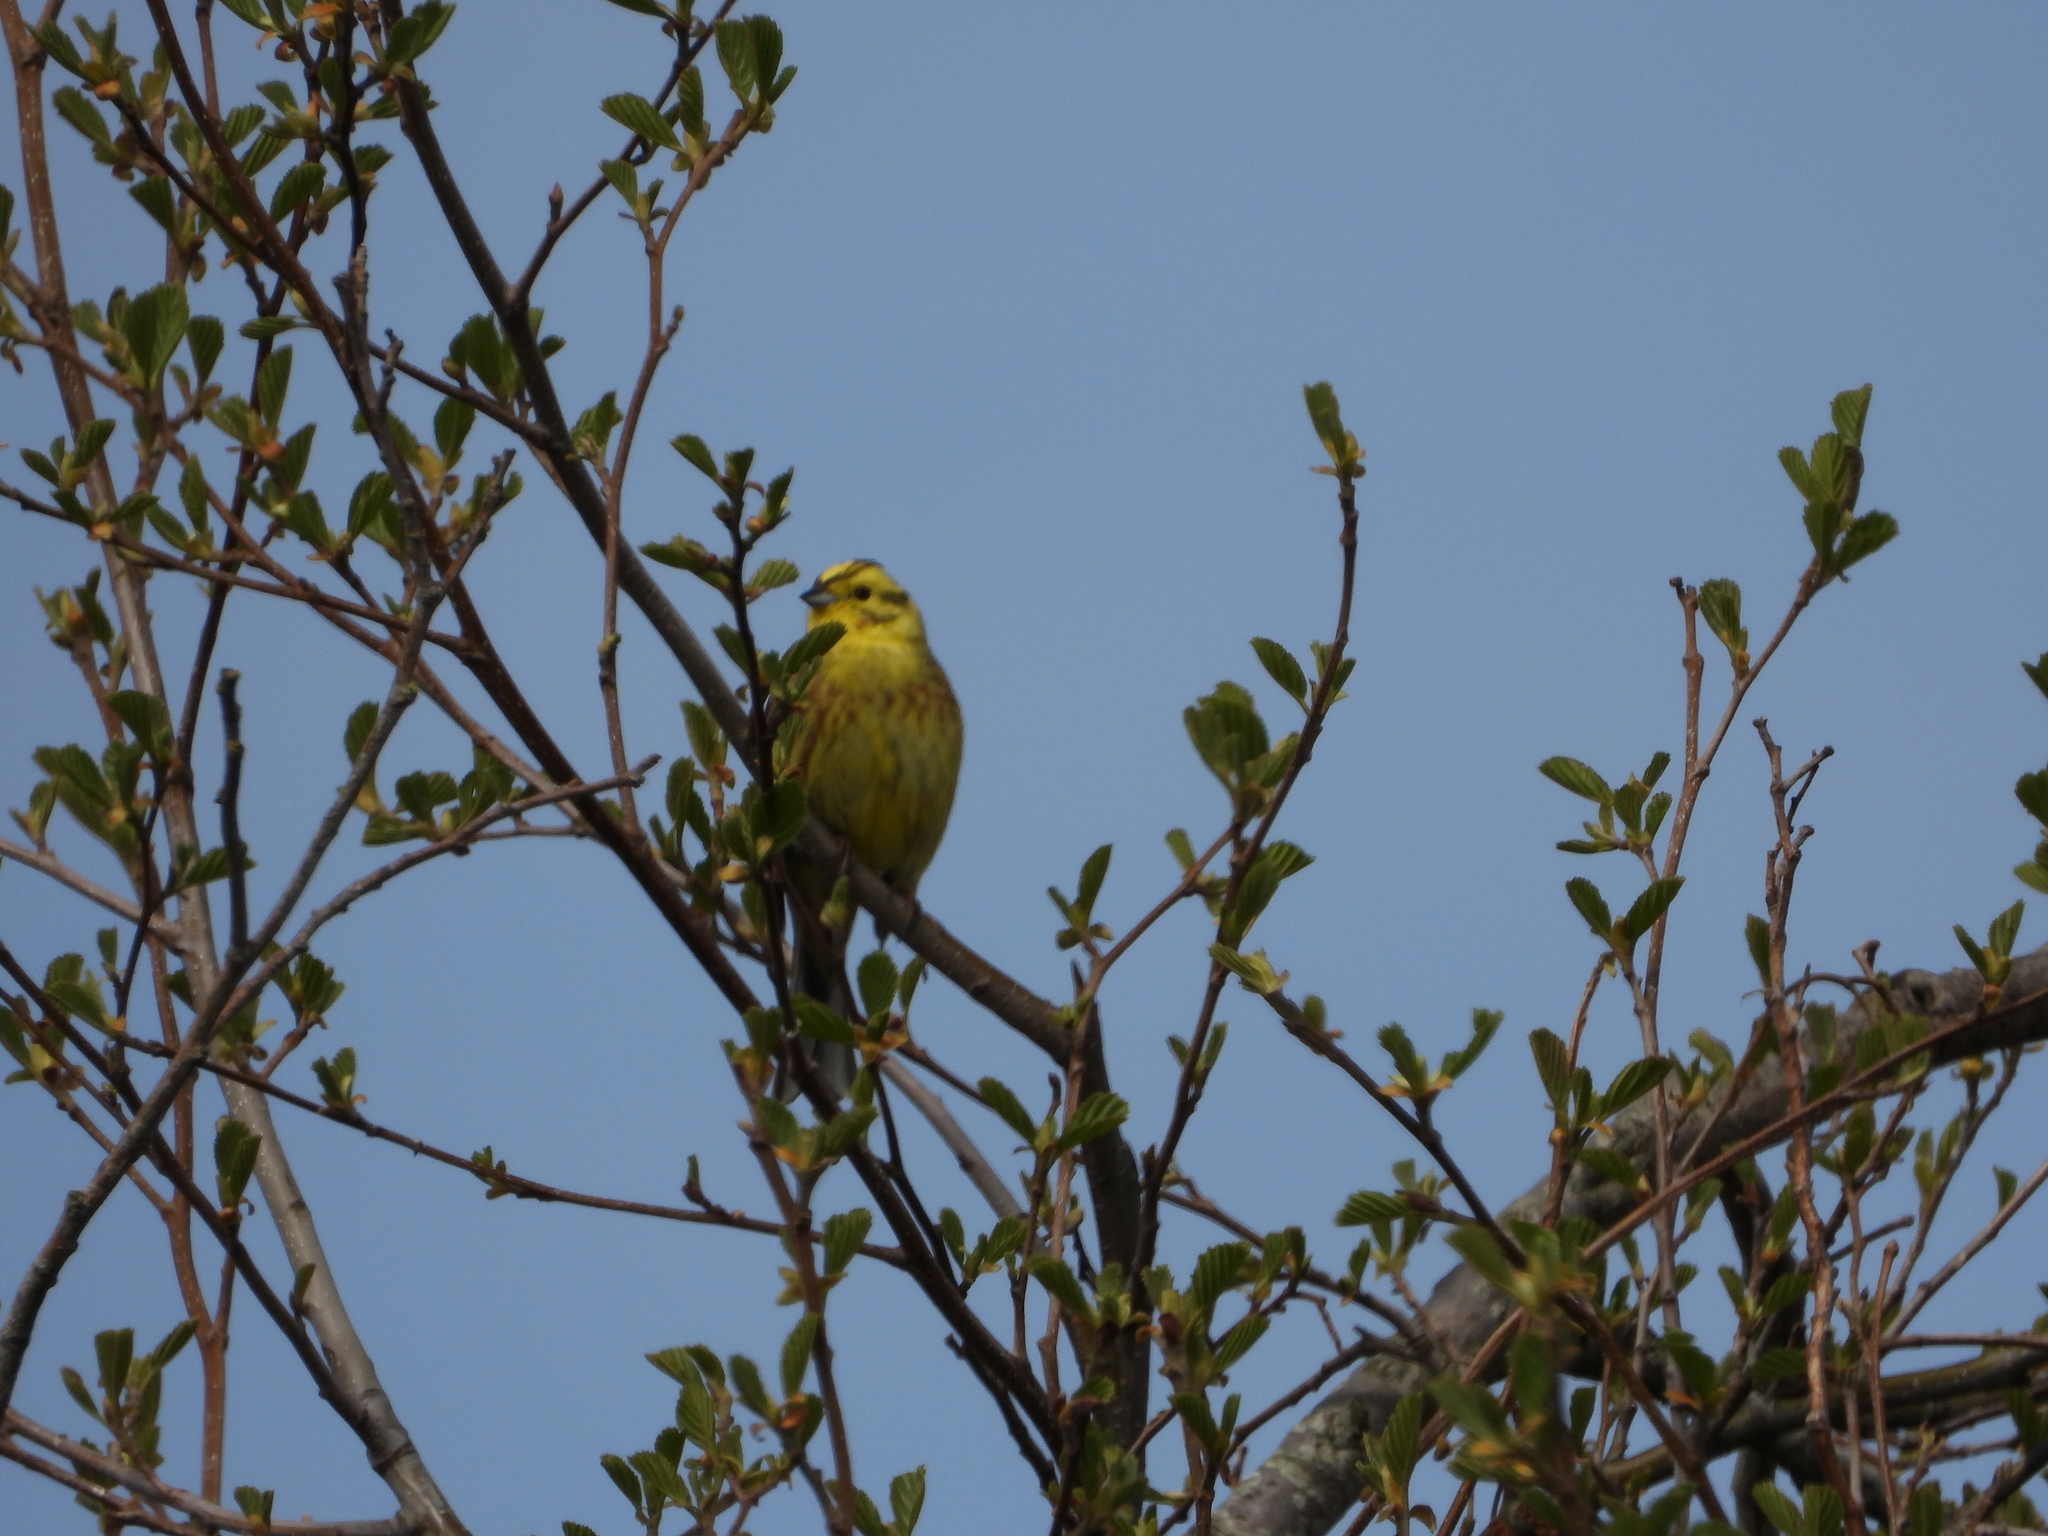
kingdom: Animalia
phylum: Chordata
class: Aves
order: Passeriformes
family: Emberizidae
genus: Emberiza
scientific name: Emberiza citrinella
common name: Yellowhammer
